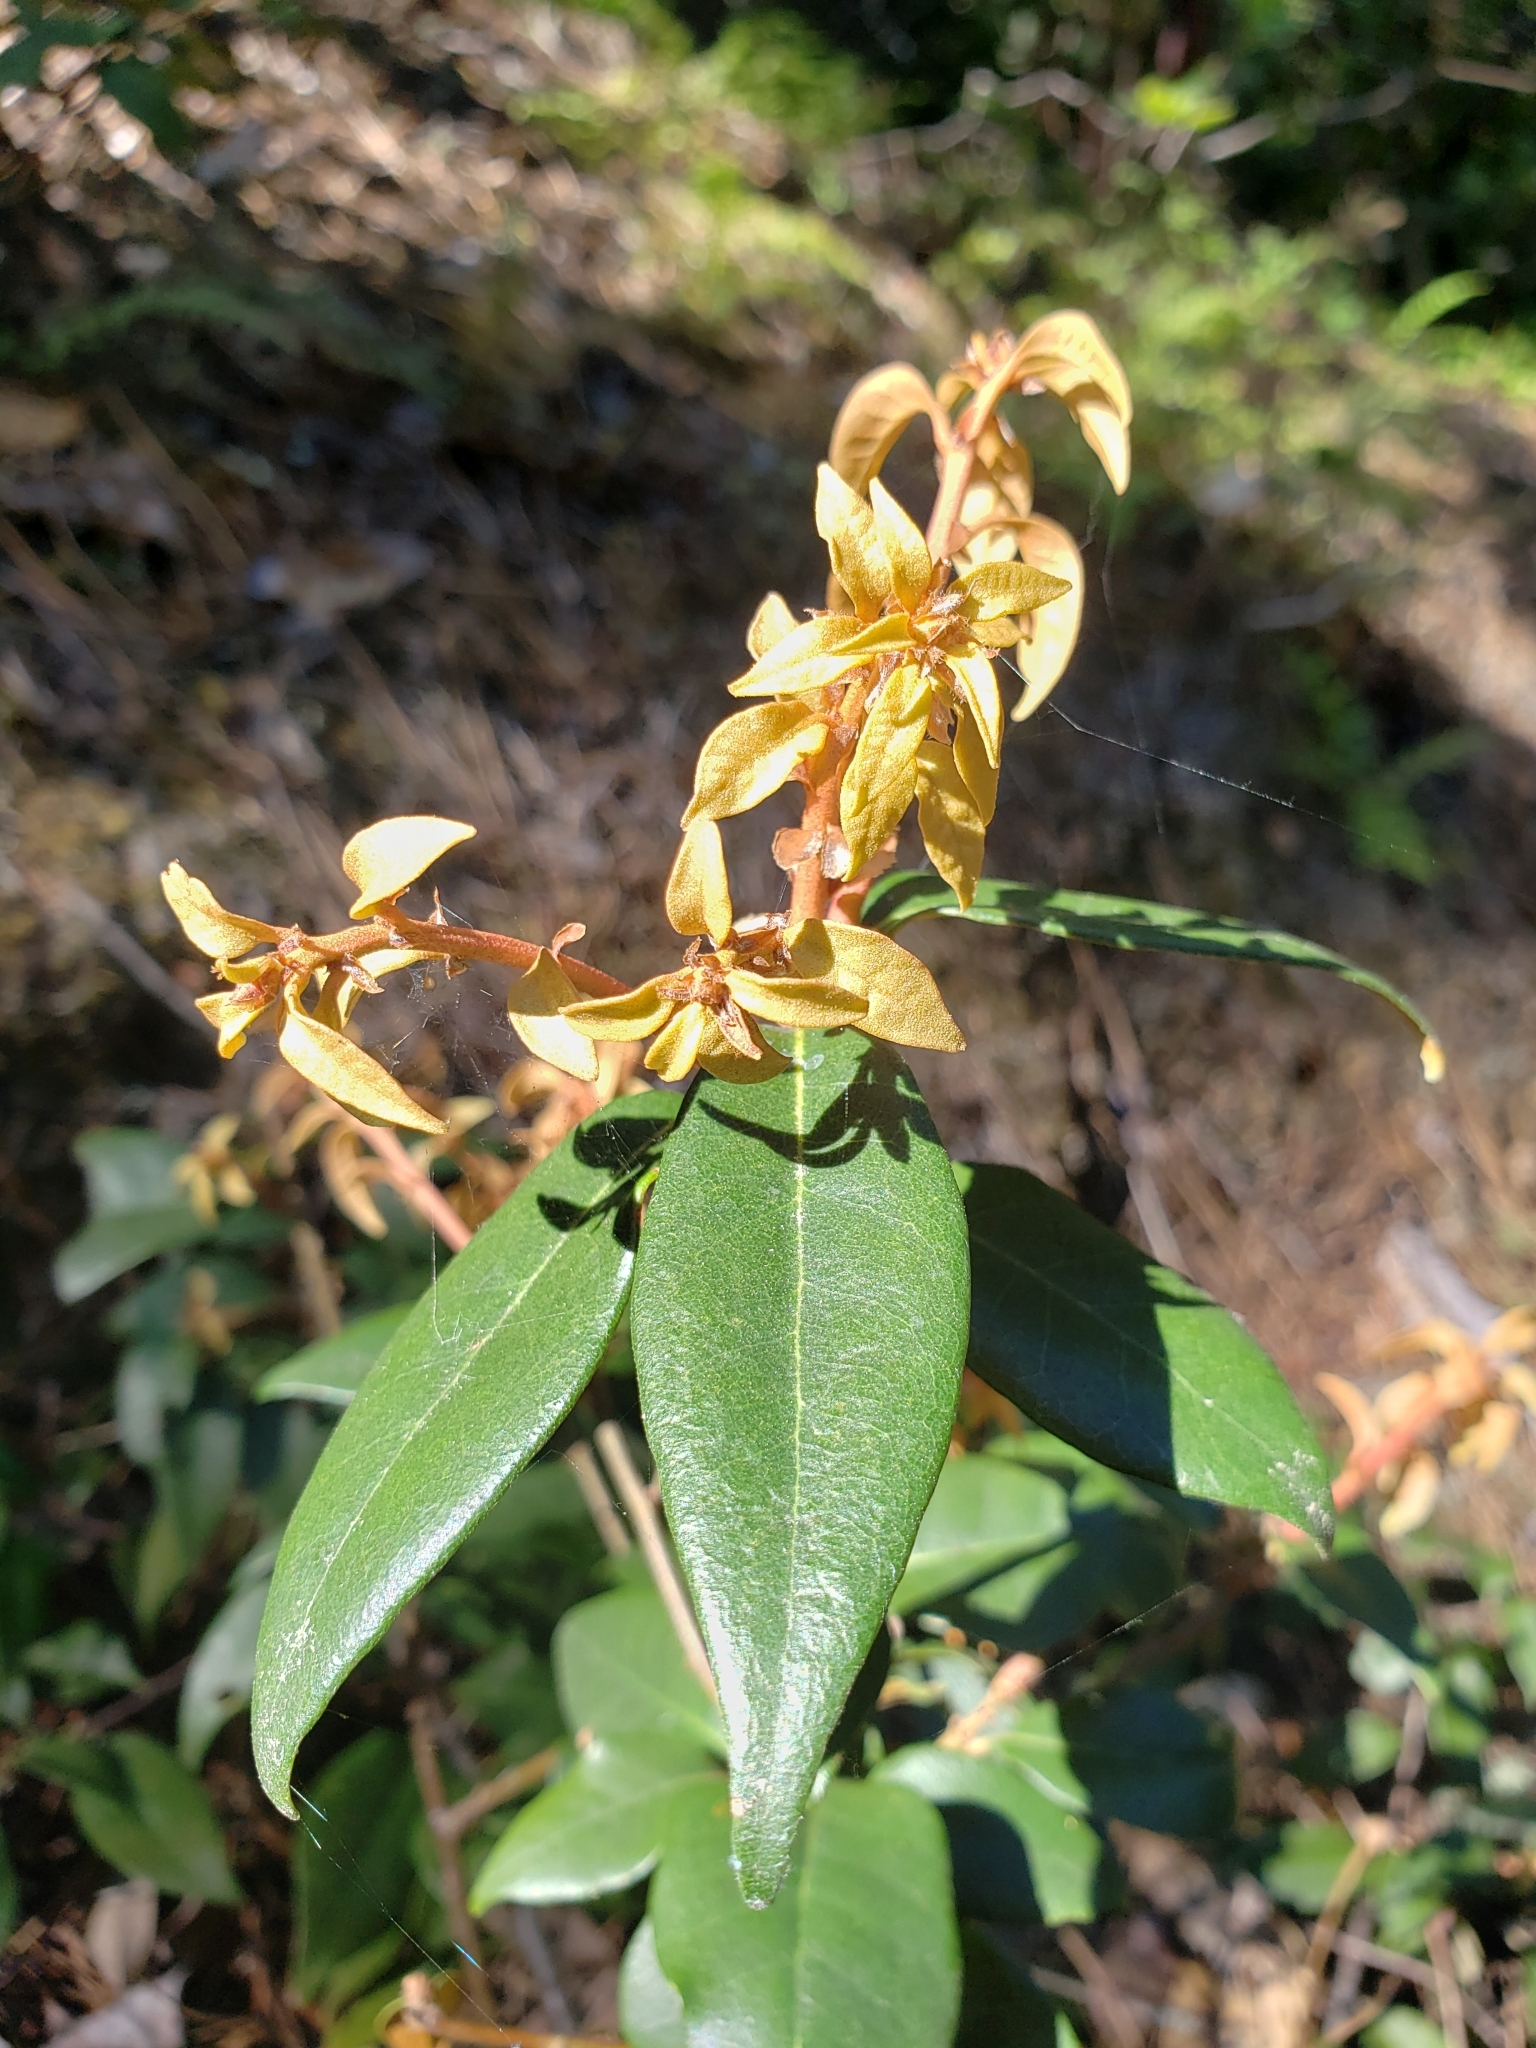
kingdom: Plantae
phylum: Tracheophyta
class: Magnoliopsida
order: Fagales
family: Fagaceae
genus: Chrysolepis
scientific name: Chrysolepis chrysophylla
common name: Giant chinquapin
